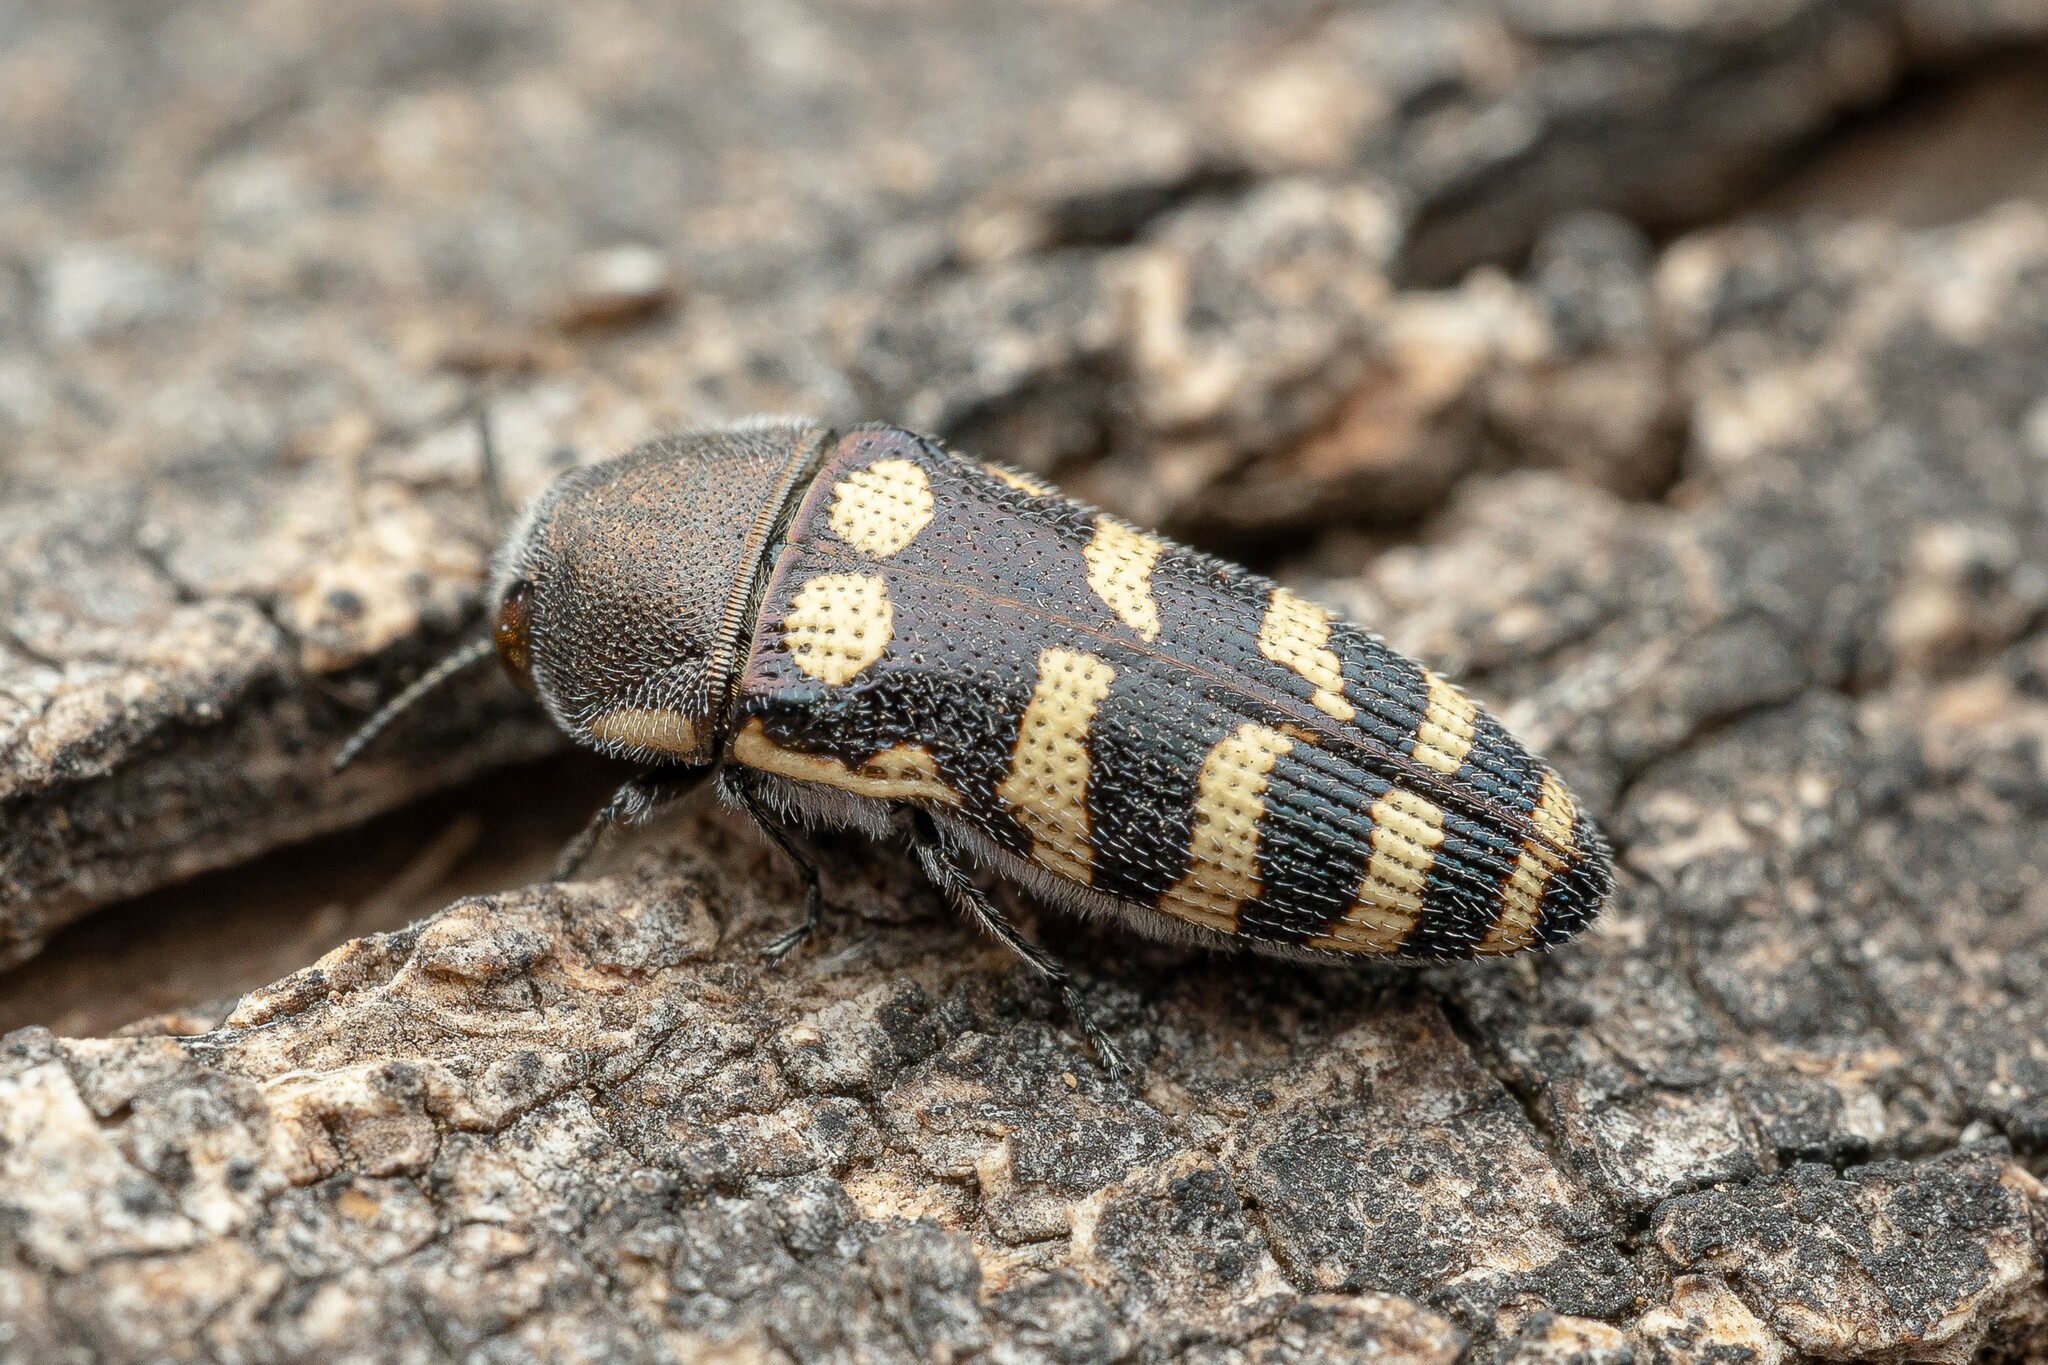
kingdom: Animalia
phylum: Arthropoda
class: Insecta
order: Coleoptera
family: Buprestidae
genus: Acmaeodera
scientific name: Acmaeodera alicia
